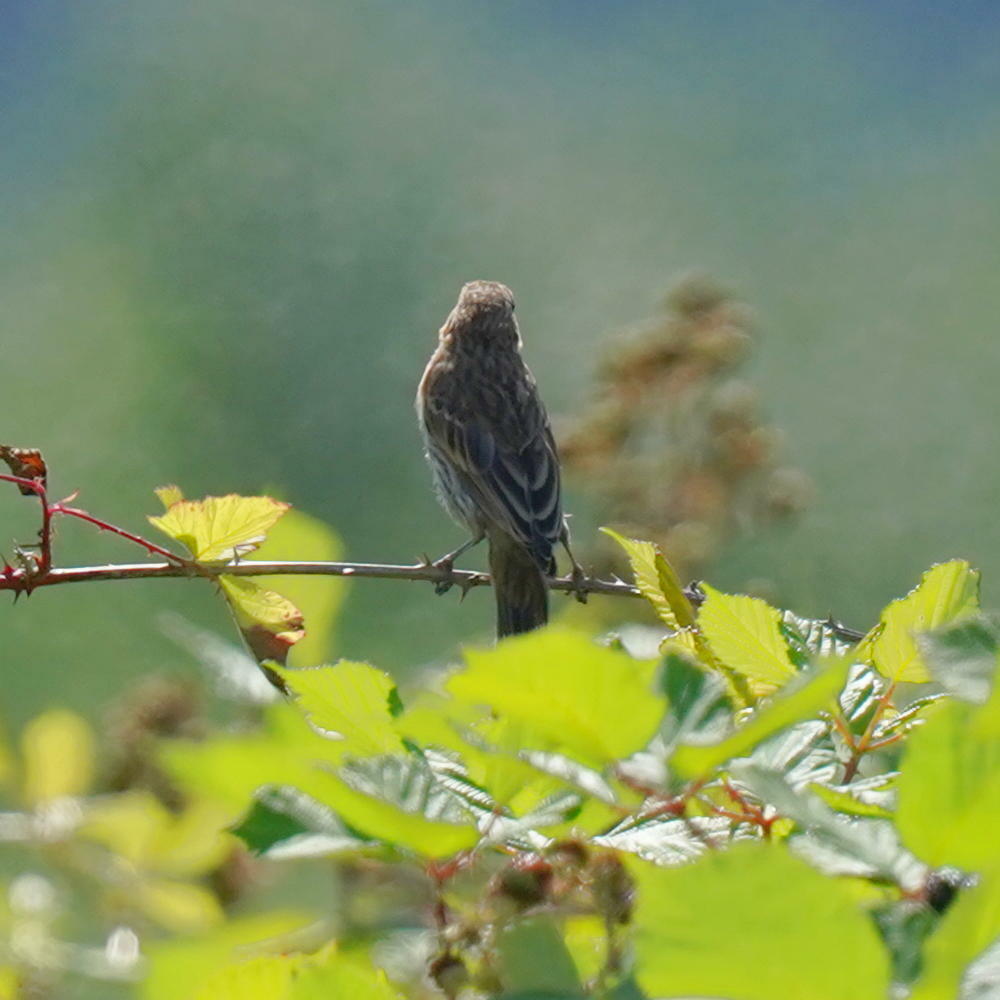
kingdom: Animalia
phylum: Chordata
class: Aves
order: Passeriformes
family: Fringillidae
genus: Haemorhous
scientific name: Haemorhous mexicanus
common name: House finch
